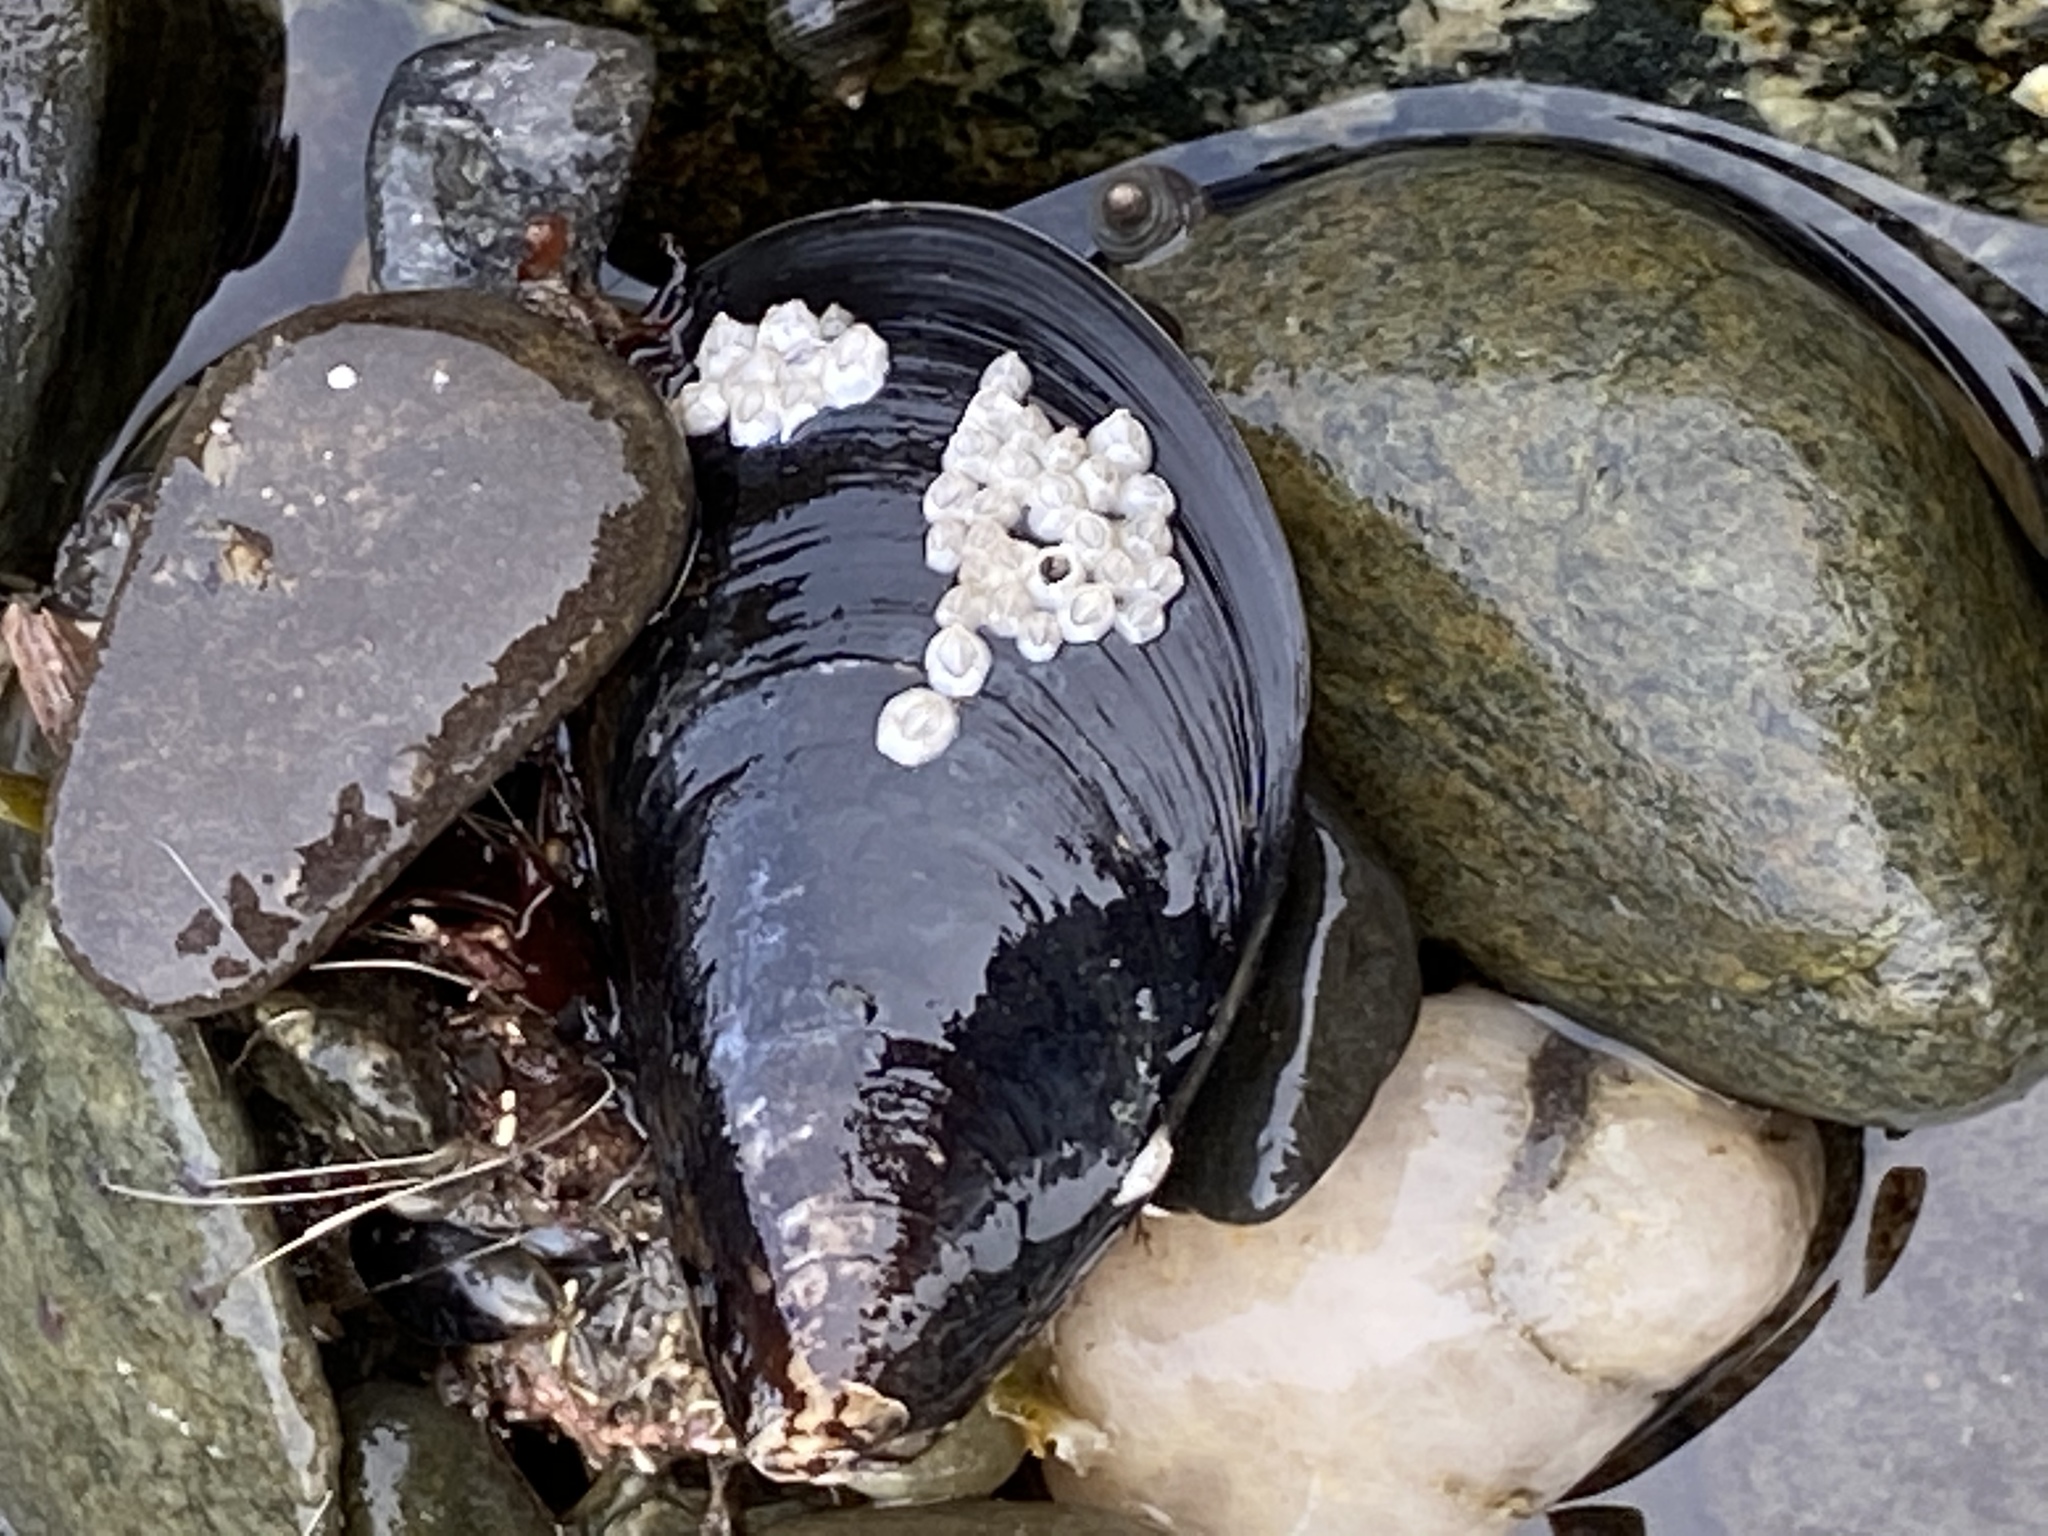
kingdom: Animalia
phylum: Mollusca
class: Bivalvia
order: Mytilida
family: Mytilidae
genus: Mytilus
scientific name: Mytilus edulis
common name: Blue mussel
